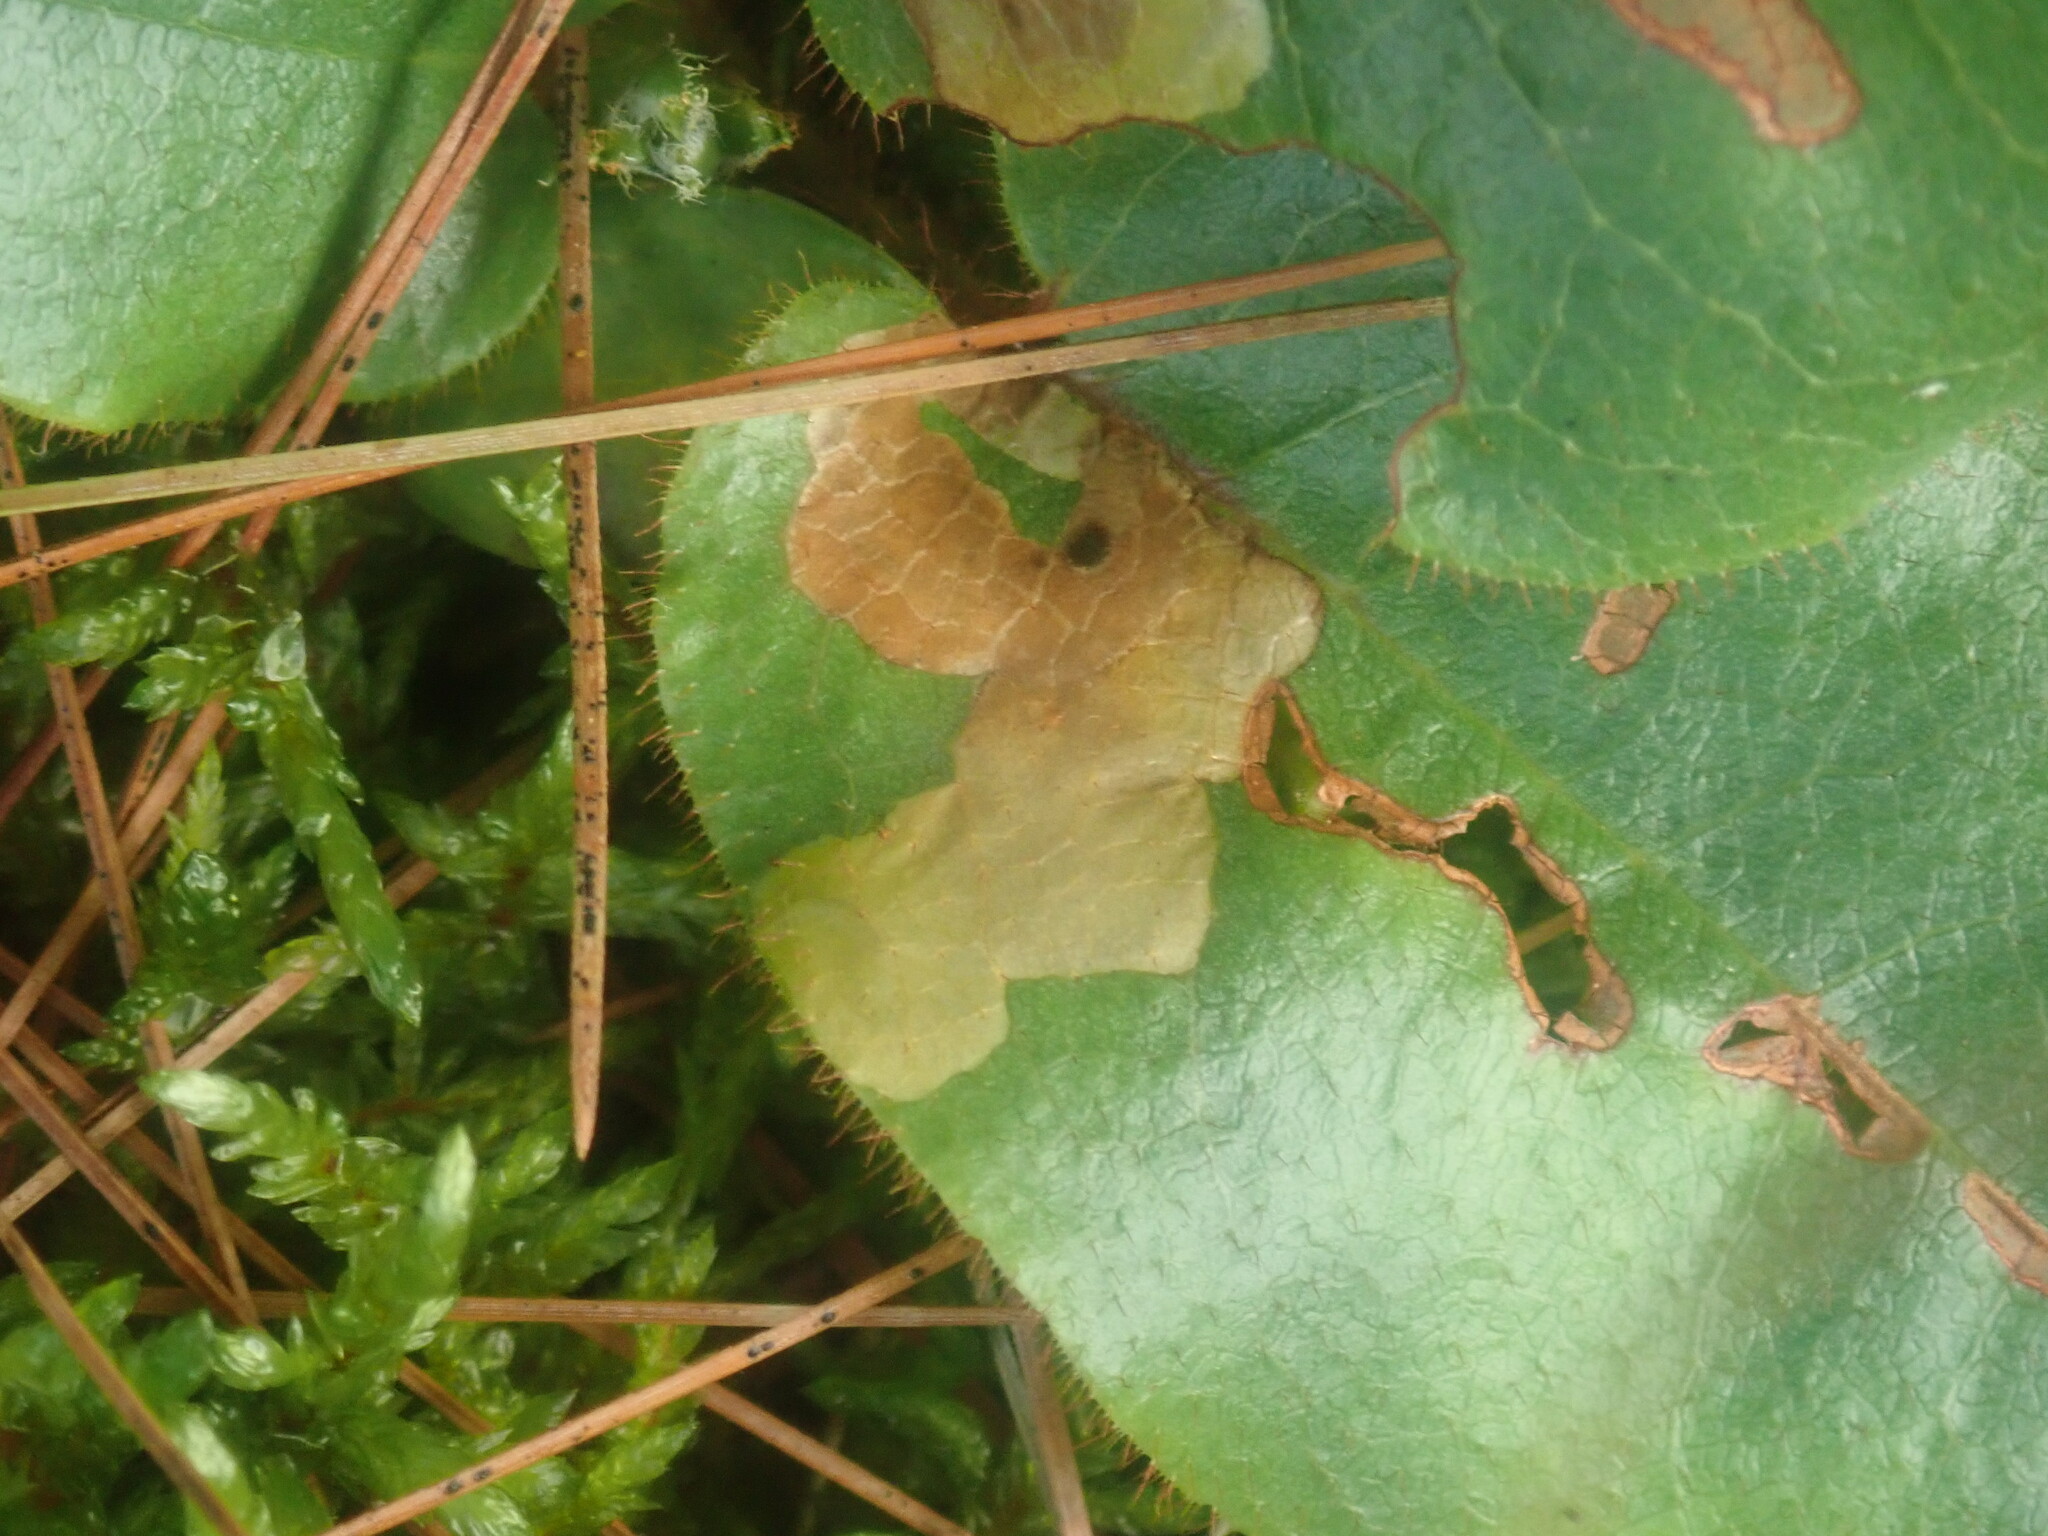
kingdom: Animalia
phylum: Arthropoda
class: Insecta
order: Coleoptera
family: Buprestidae
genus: Brachys
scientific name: Brachys
